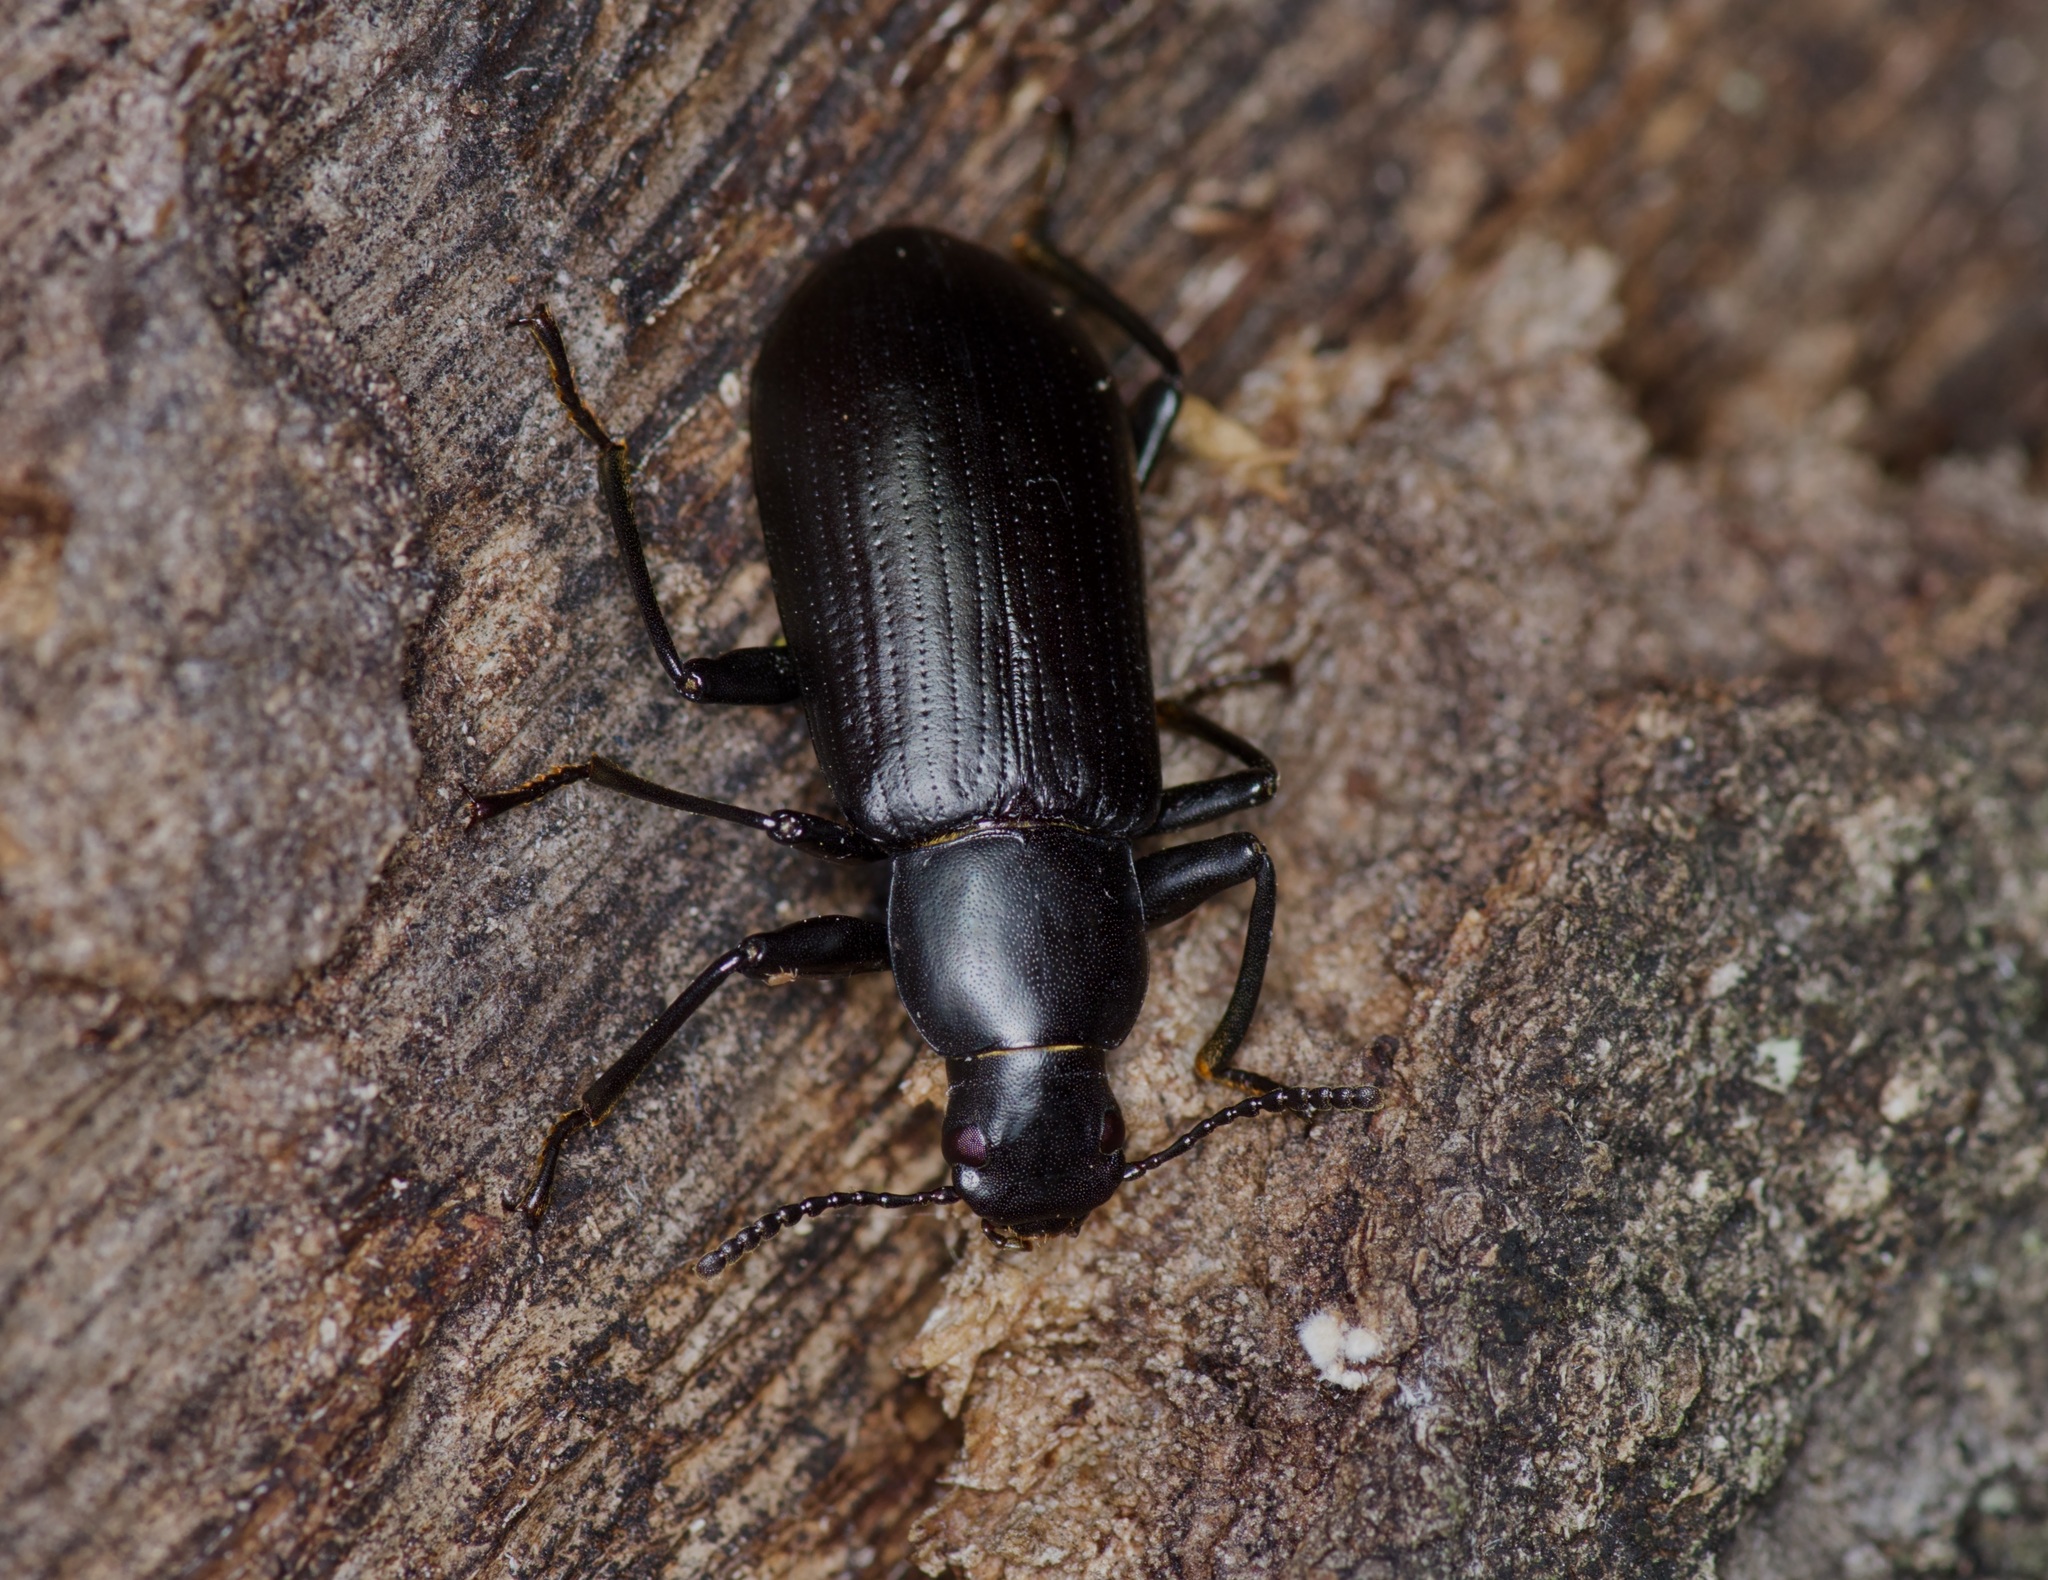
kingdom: Animalia
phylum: Arthropoda
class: Insecta
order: Coleoptera
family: Tenebrionidae
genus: Alobates
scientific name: Alobates
